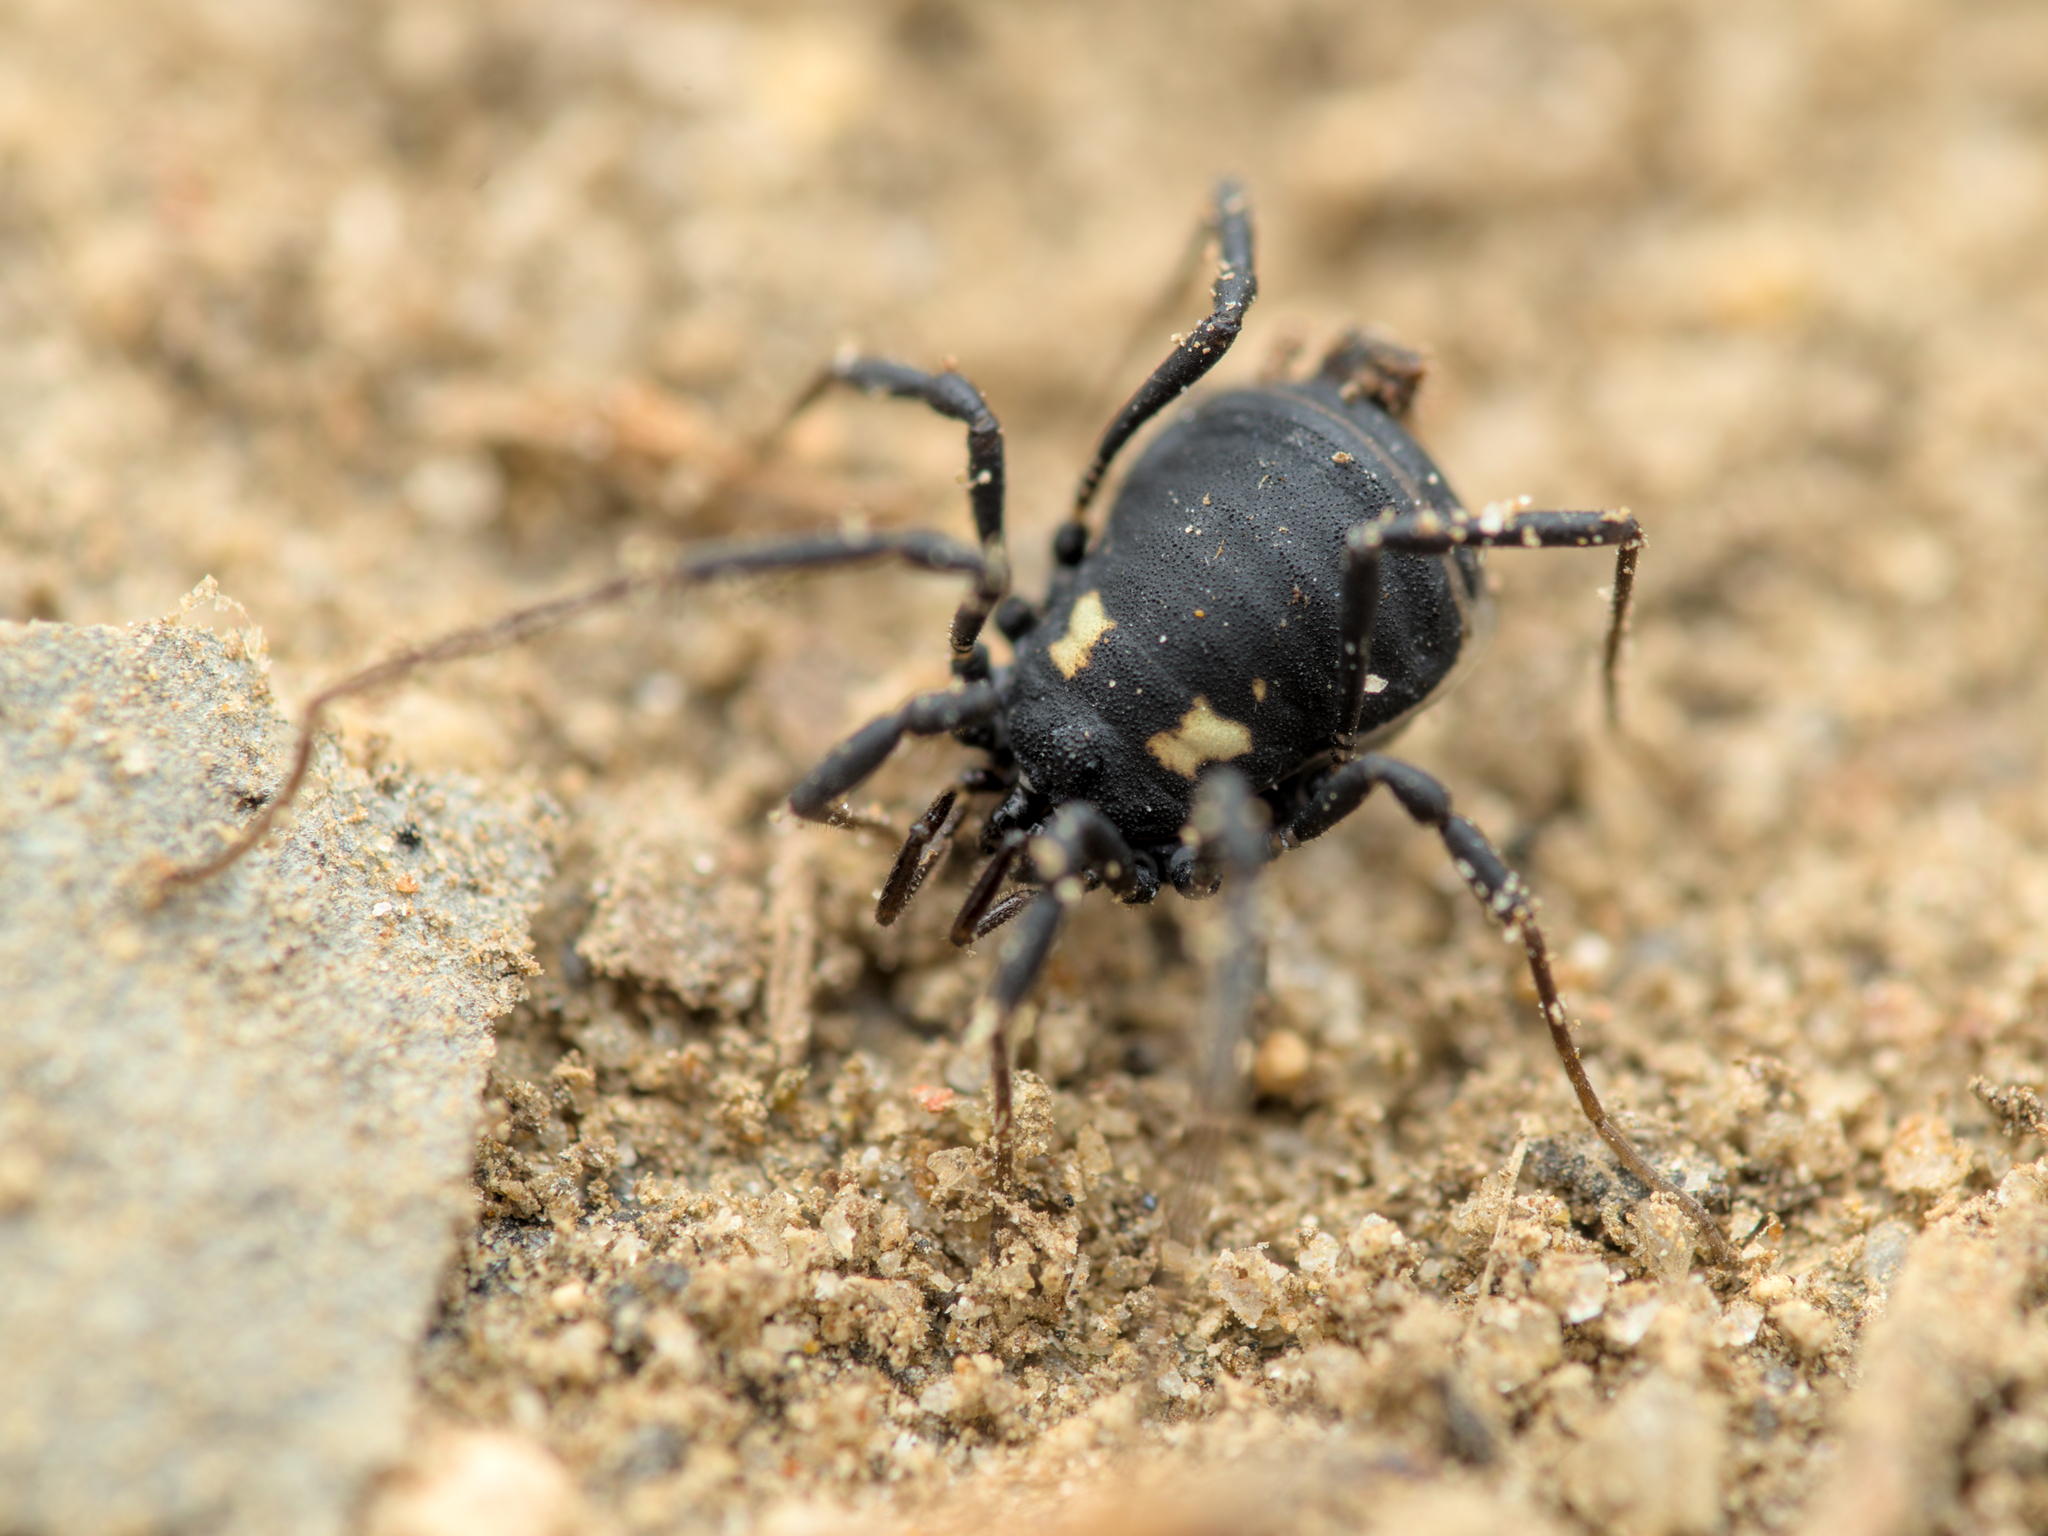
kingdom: Animalia
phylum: Arthropoda
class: Arachnida
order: Opiliones
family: Nemastomatidae
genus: Nemastoma
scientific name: Nemastoma bimaculatum
